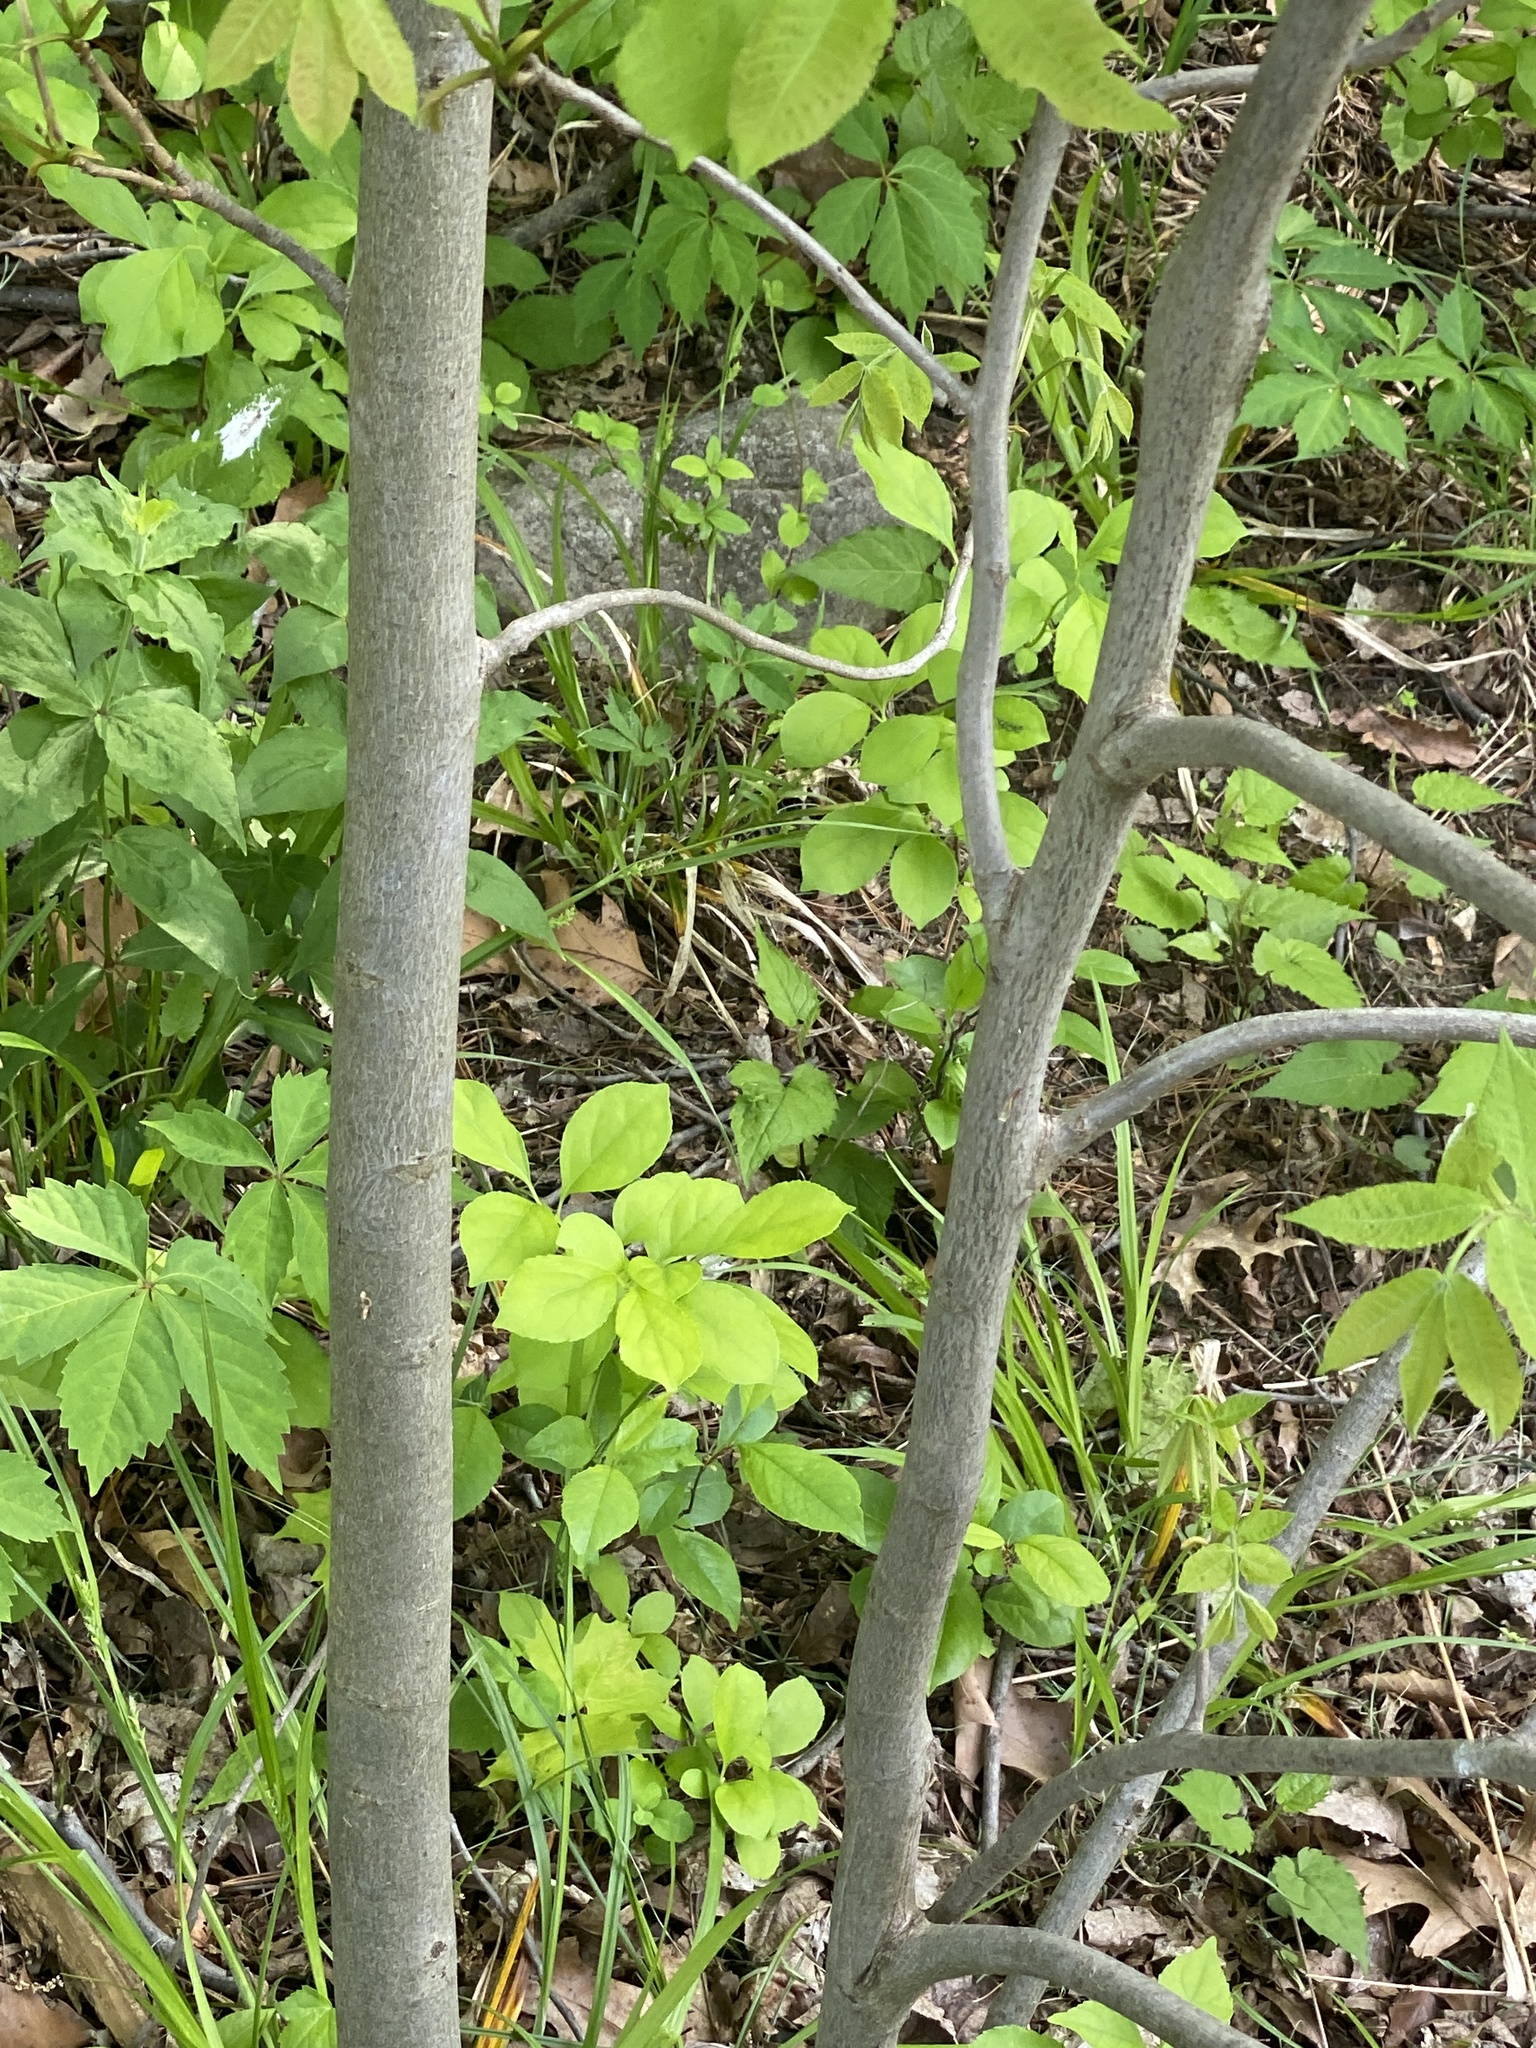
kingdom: Plantae
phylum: Tracheophyta
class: Magnoliopsida
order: Fagales
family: Juglandaceae
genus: Carya
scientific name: Carya cordiformis
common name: Bitternut hickory
